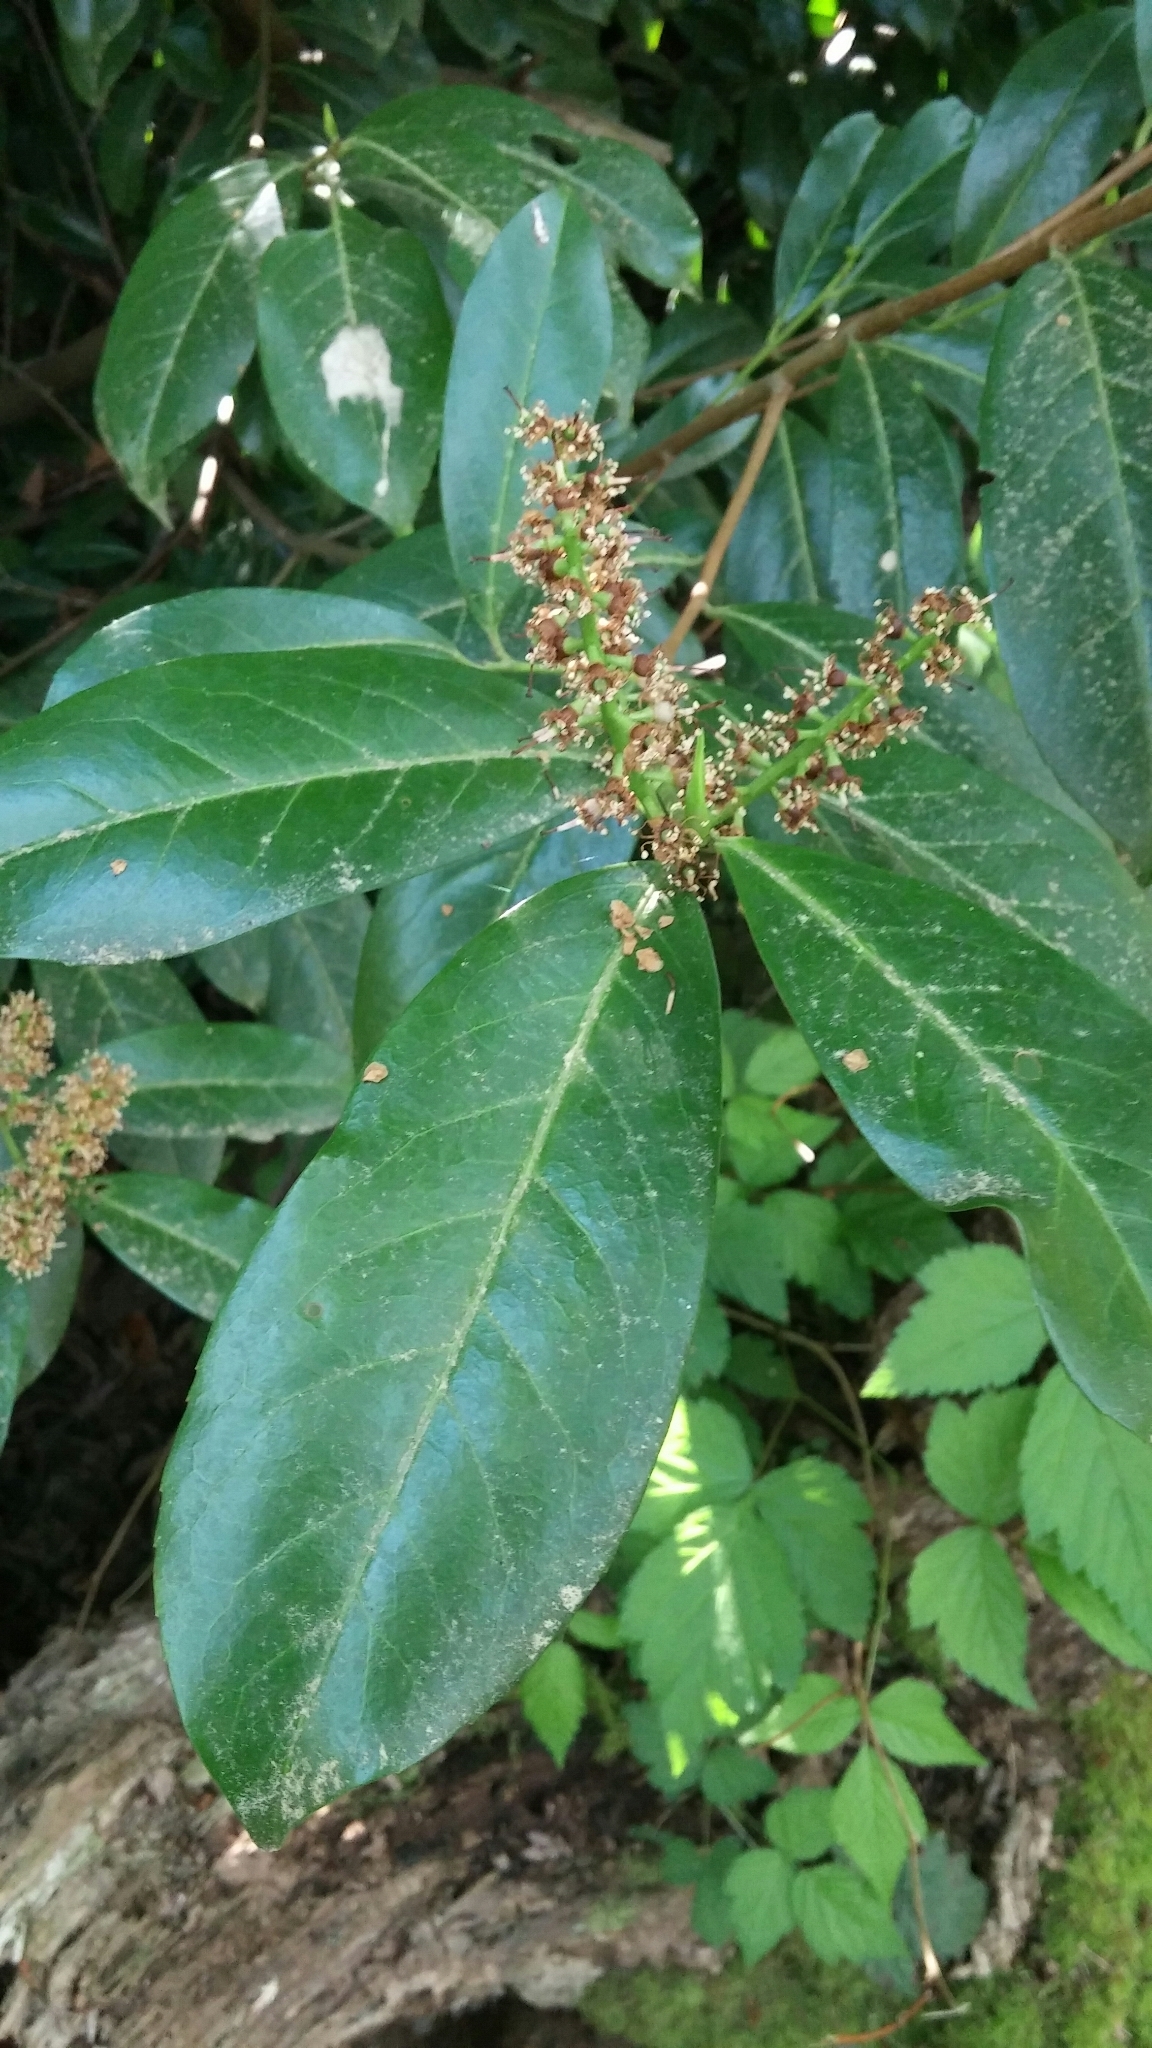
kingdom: Plantae
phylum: Tracheophyta
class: Magnoliopsida
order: Rosales
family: Rosaceae
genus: Prunus
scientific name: Prunus laurocerasus
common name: Cherry laurel
